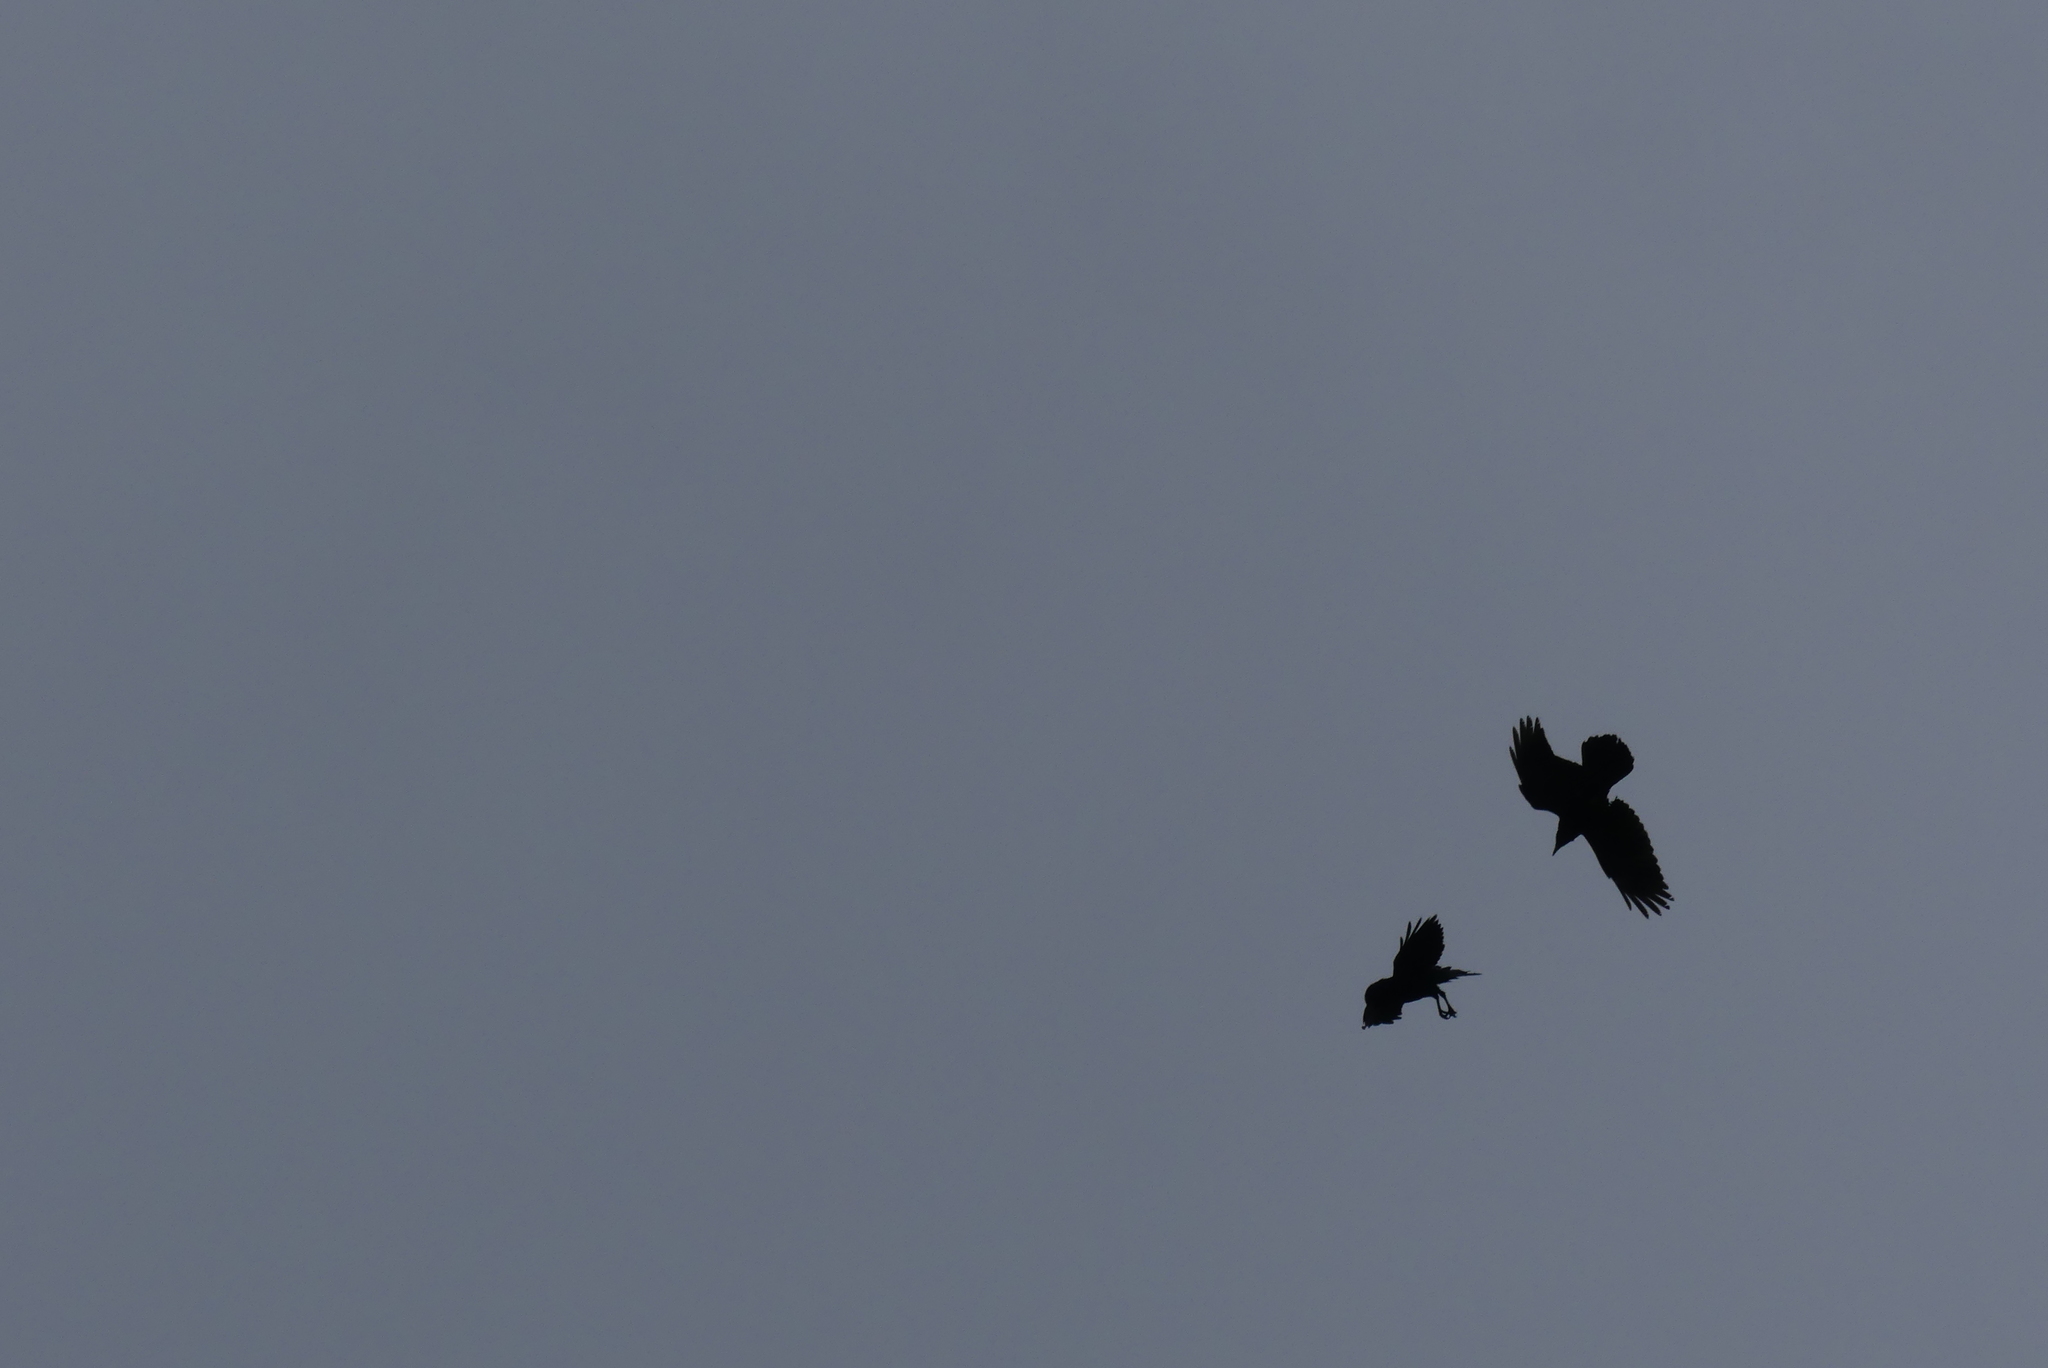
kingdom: Animalia
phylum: Chordata
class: Aves
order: Passeriformes
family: Corvidae
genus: Corvus
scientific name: Corvus corax
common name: Common raven
